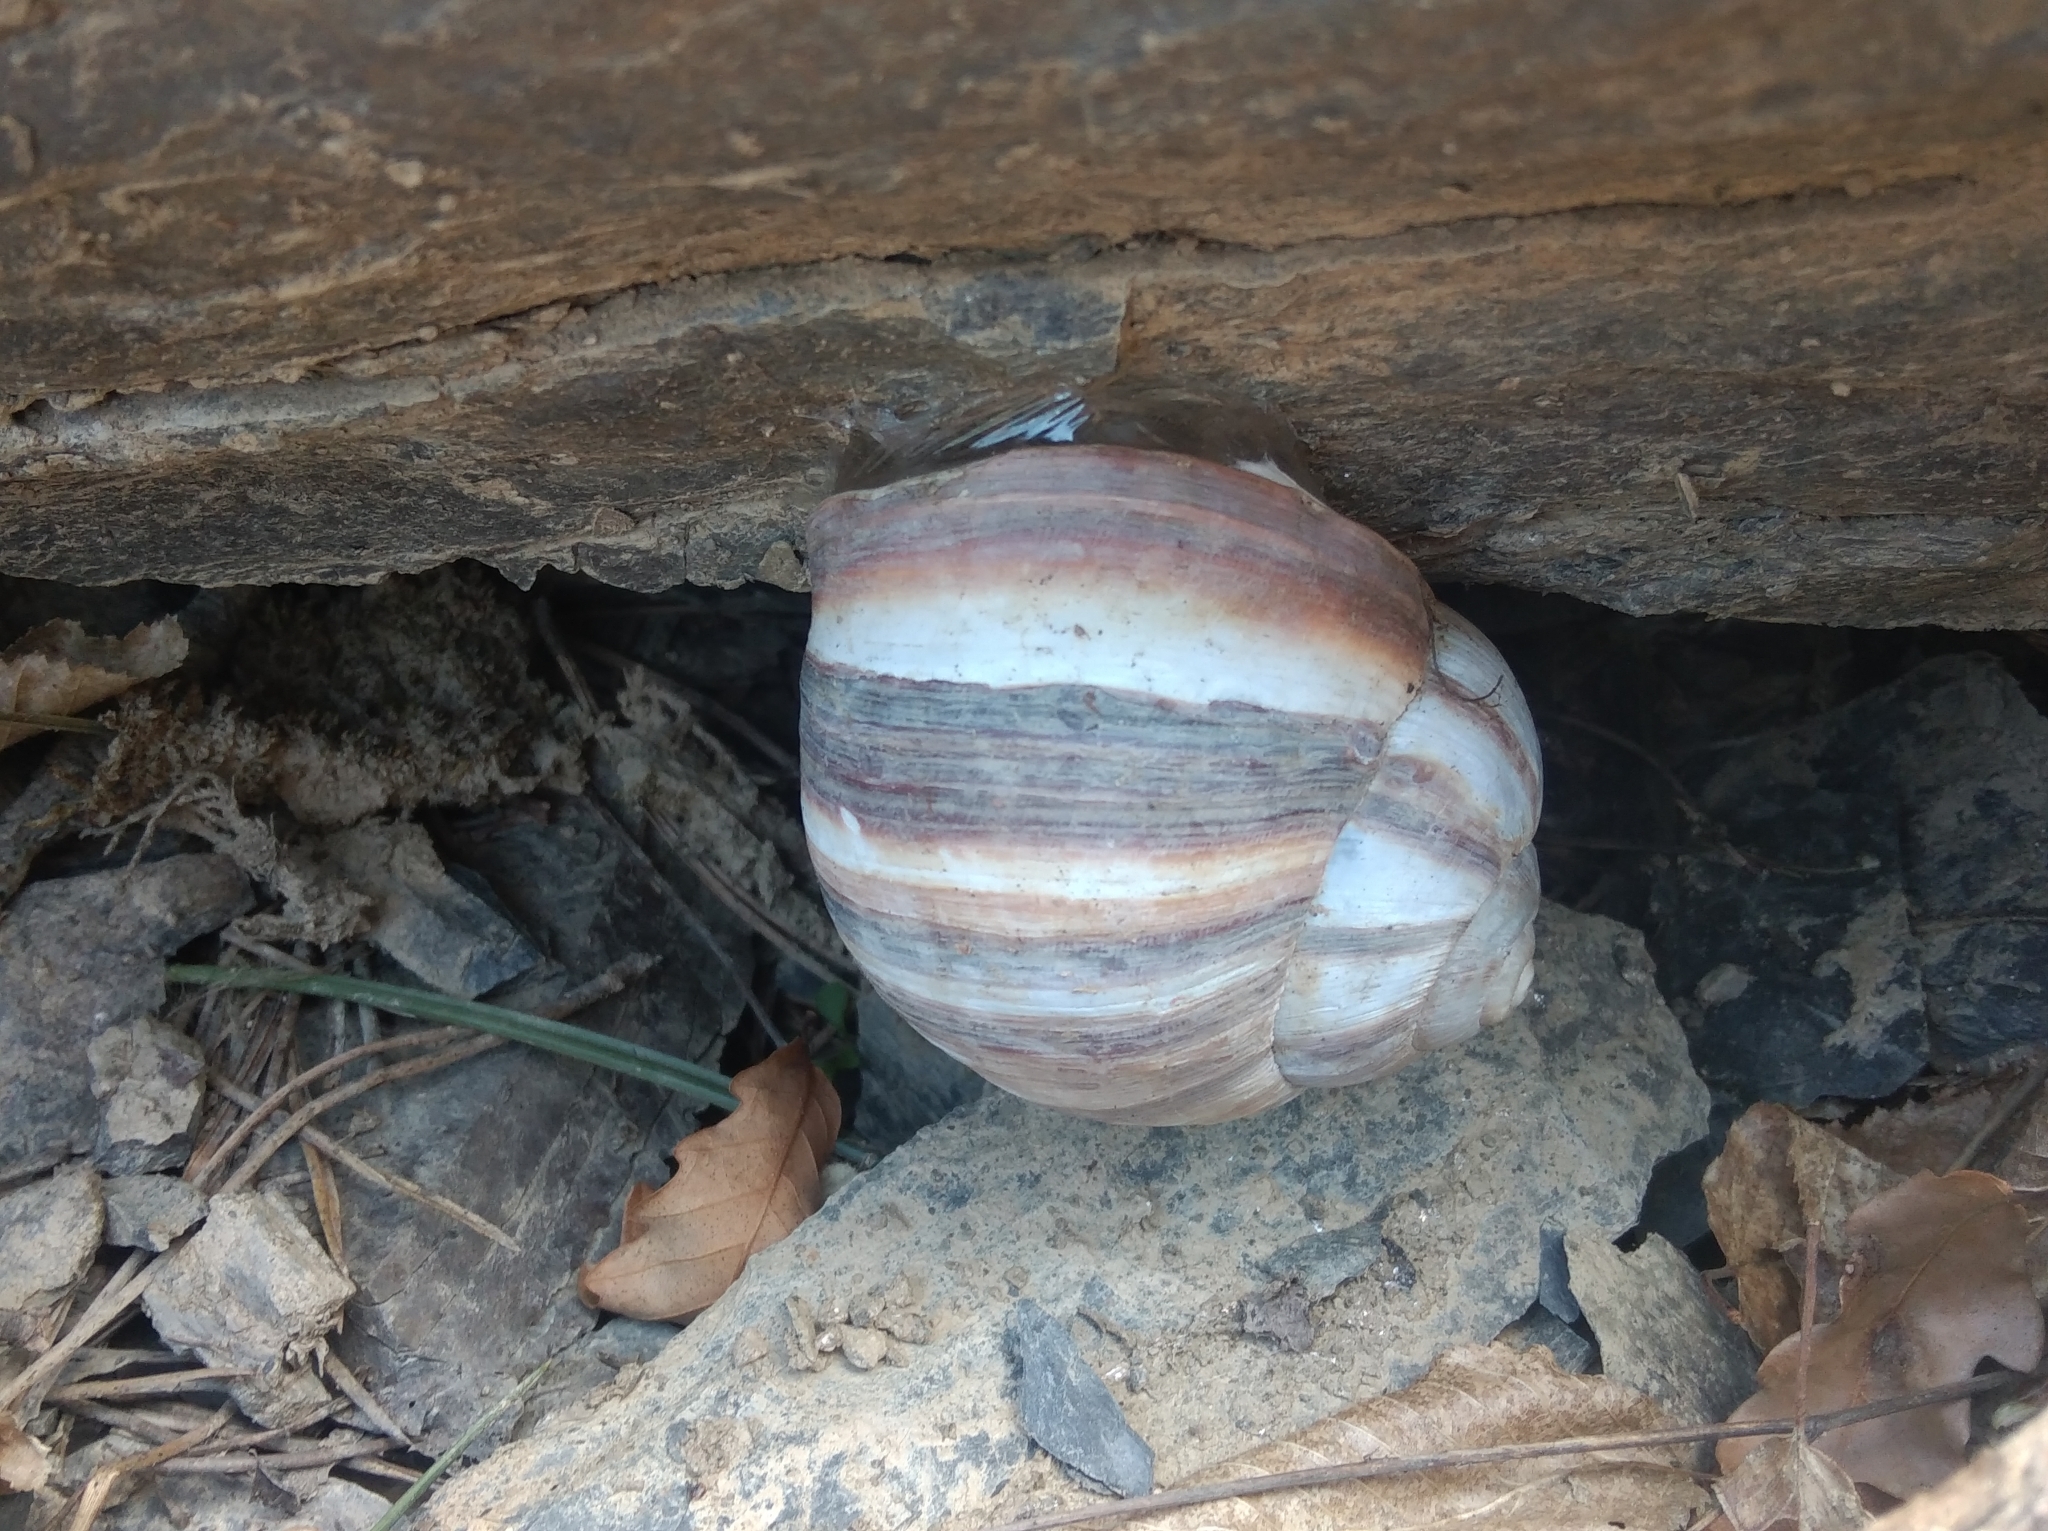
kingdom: Animalia
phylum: Mollusca
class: Gastropoda
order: Stylommatophora
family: Helicidae
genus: Helix
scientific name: Helix lucorum
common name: Turkish snail
